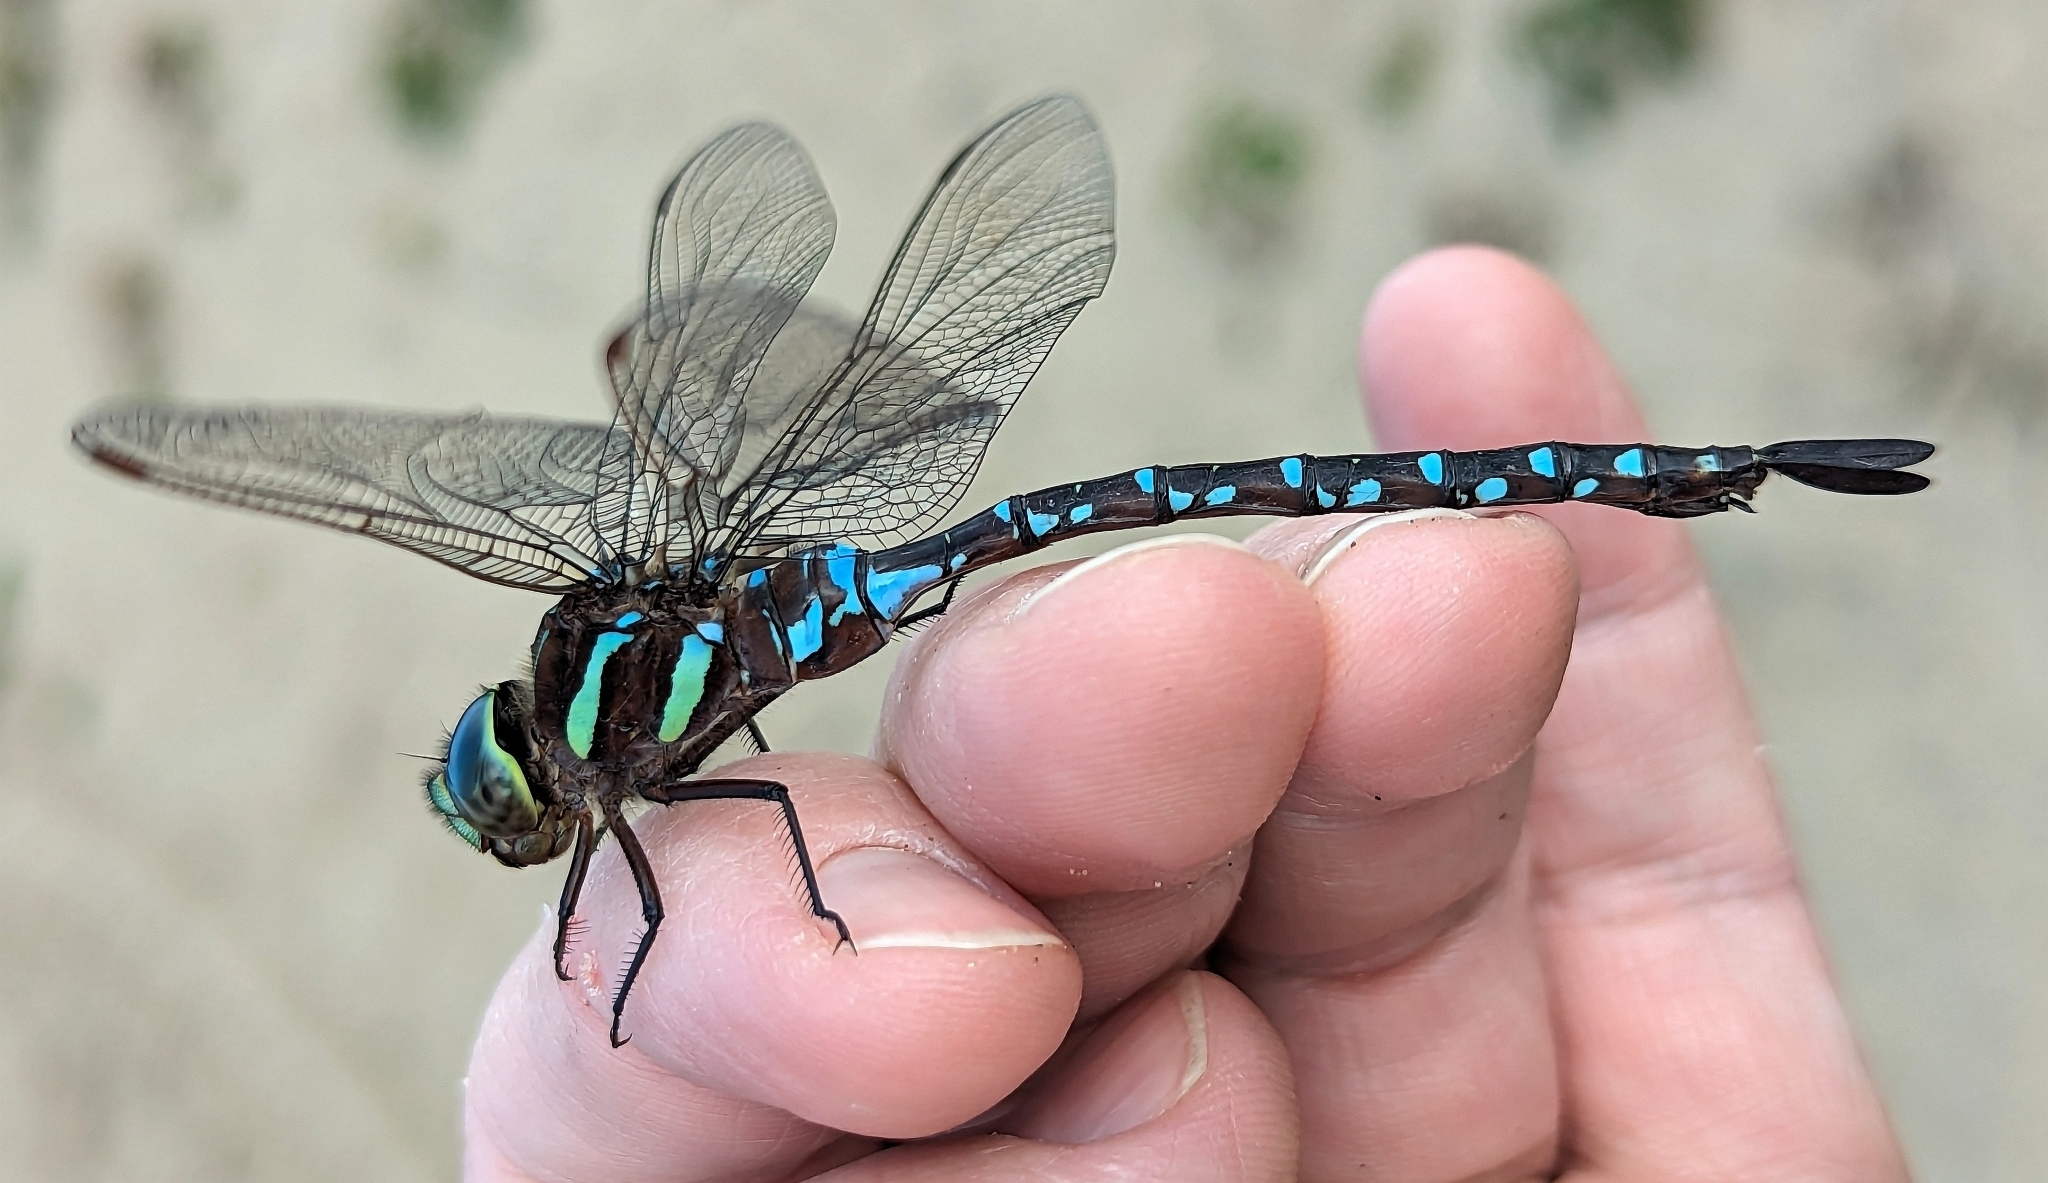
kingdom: Animalia
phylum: Arthropoda
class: Insecta
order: Odonata
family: Aeshnidae
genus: Aeshna
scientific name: Aeshna tuberculifera
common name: Aeschne à tubercules
